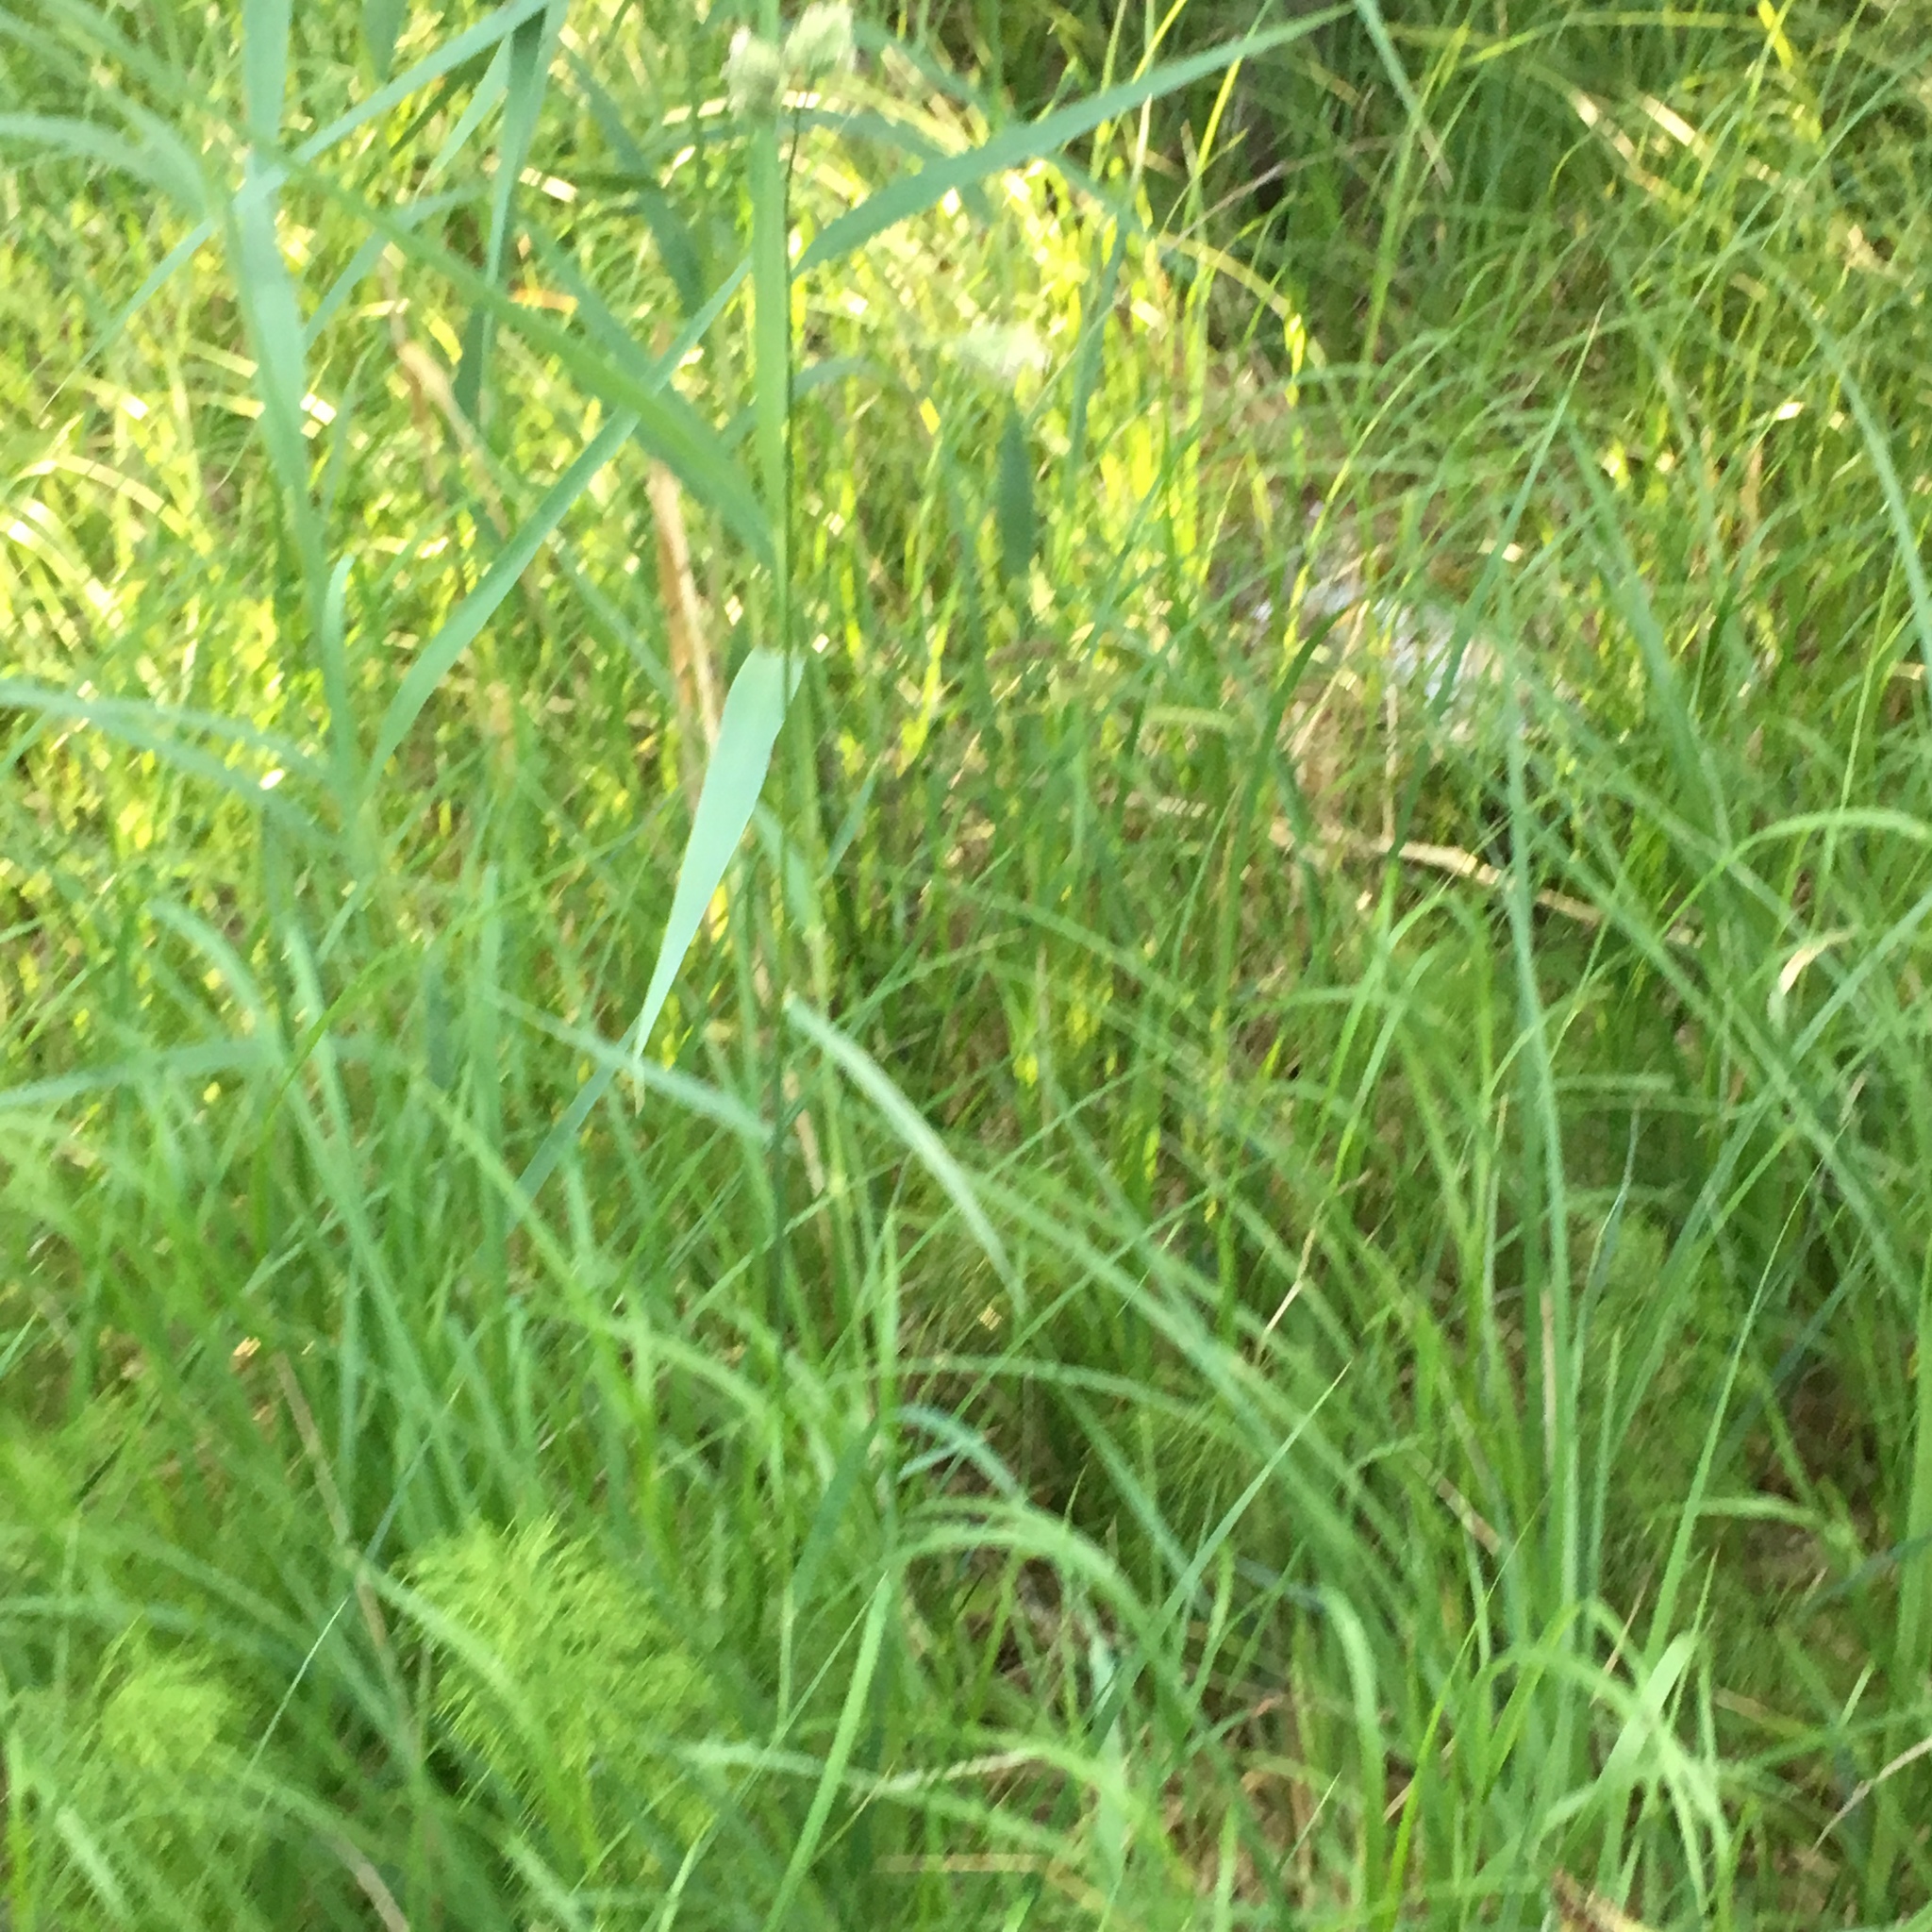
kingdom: Plantae
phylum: Tracheophyta
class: Liliopsida
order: Poales
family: Poaceae
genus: Dactylis
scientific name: Dactylis glomerata
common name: Orchardgrass
